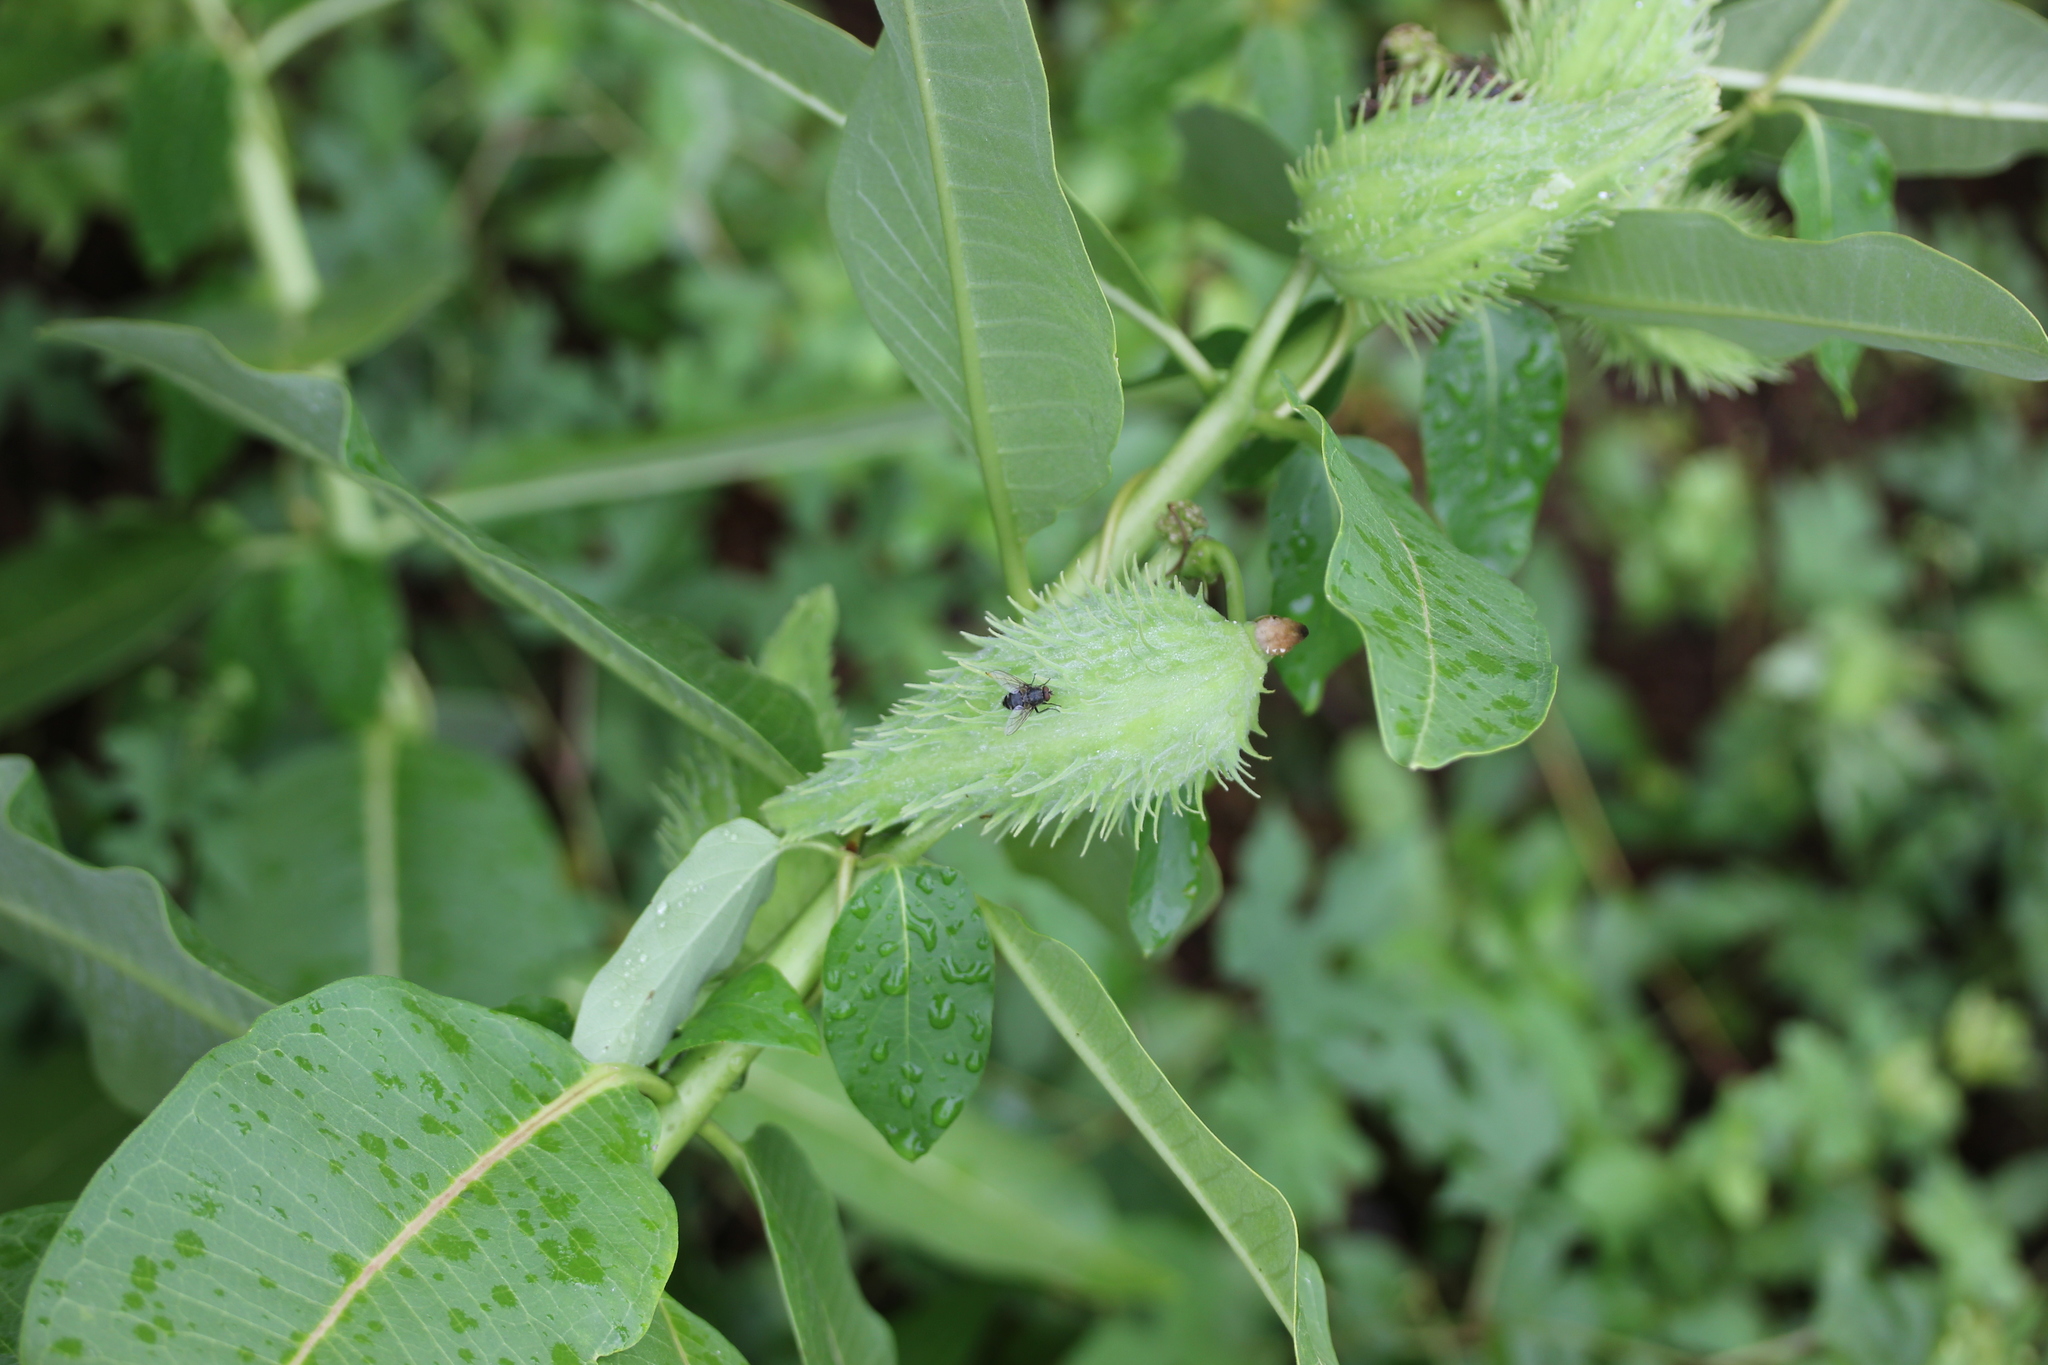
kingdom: Plantae
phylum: Tracheophyta
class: Magnoliopsida
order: Gentianales
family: Apocynaceae
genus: Asclepias
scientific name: Asclepias syriaca
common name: Common milkweed
